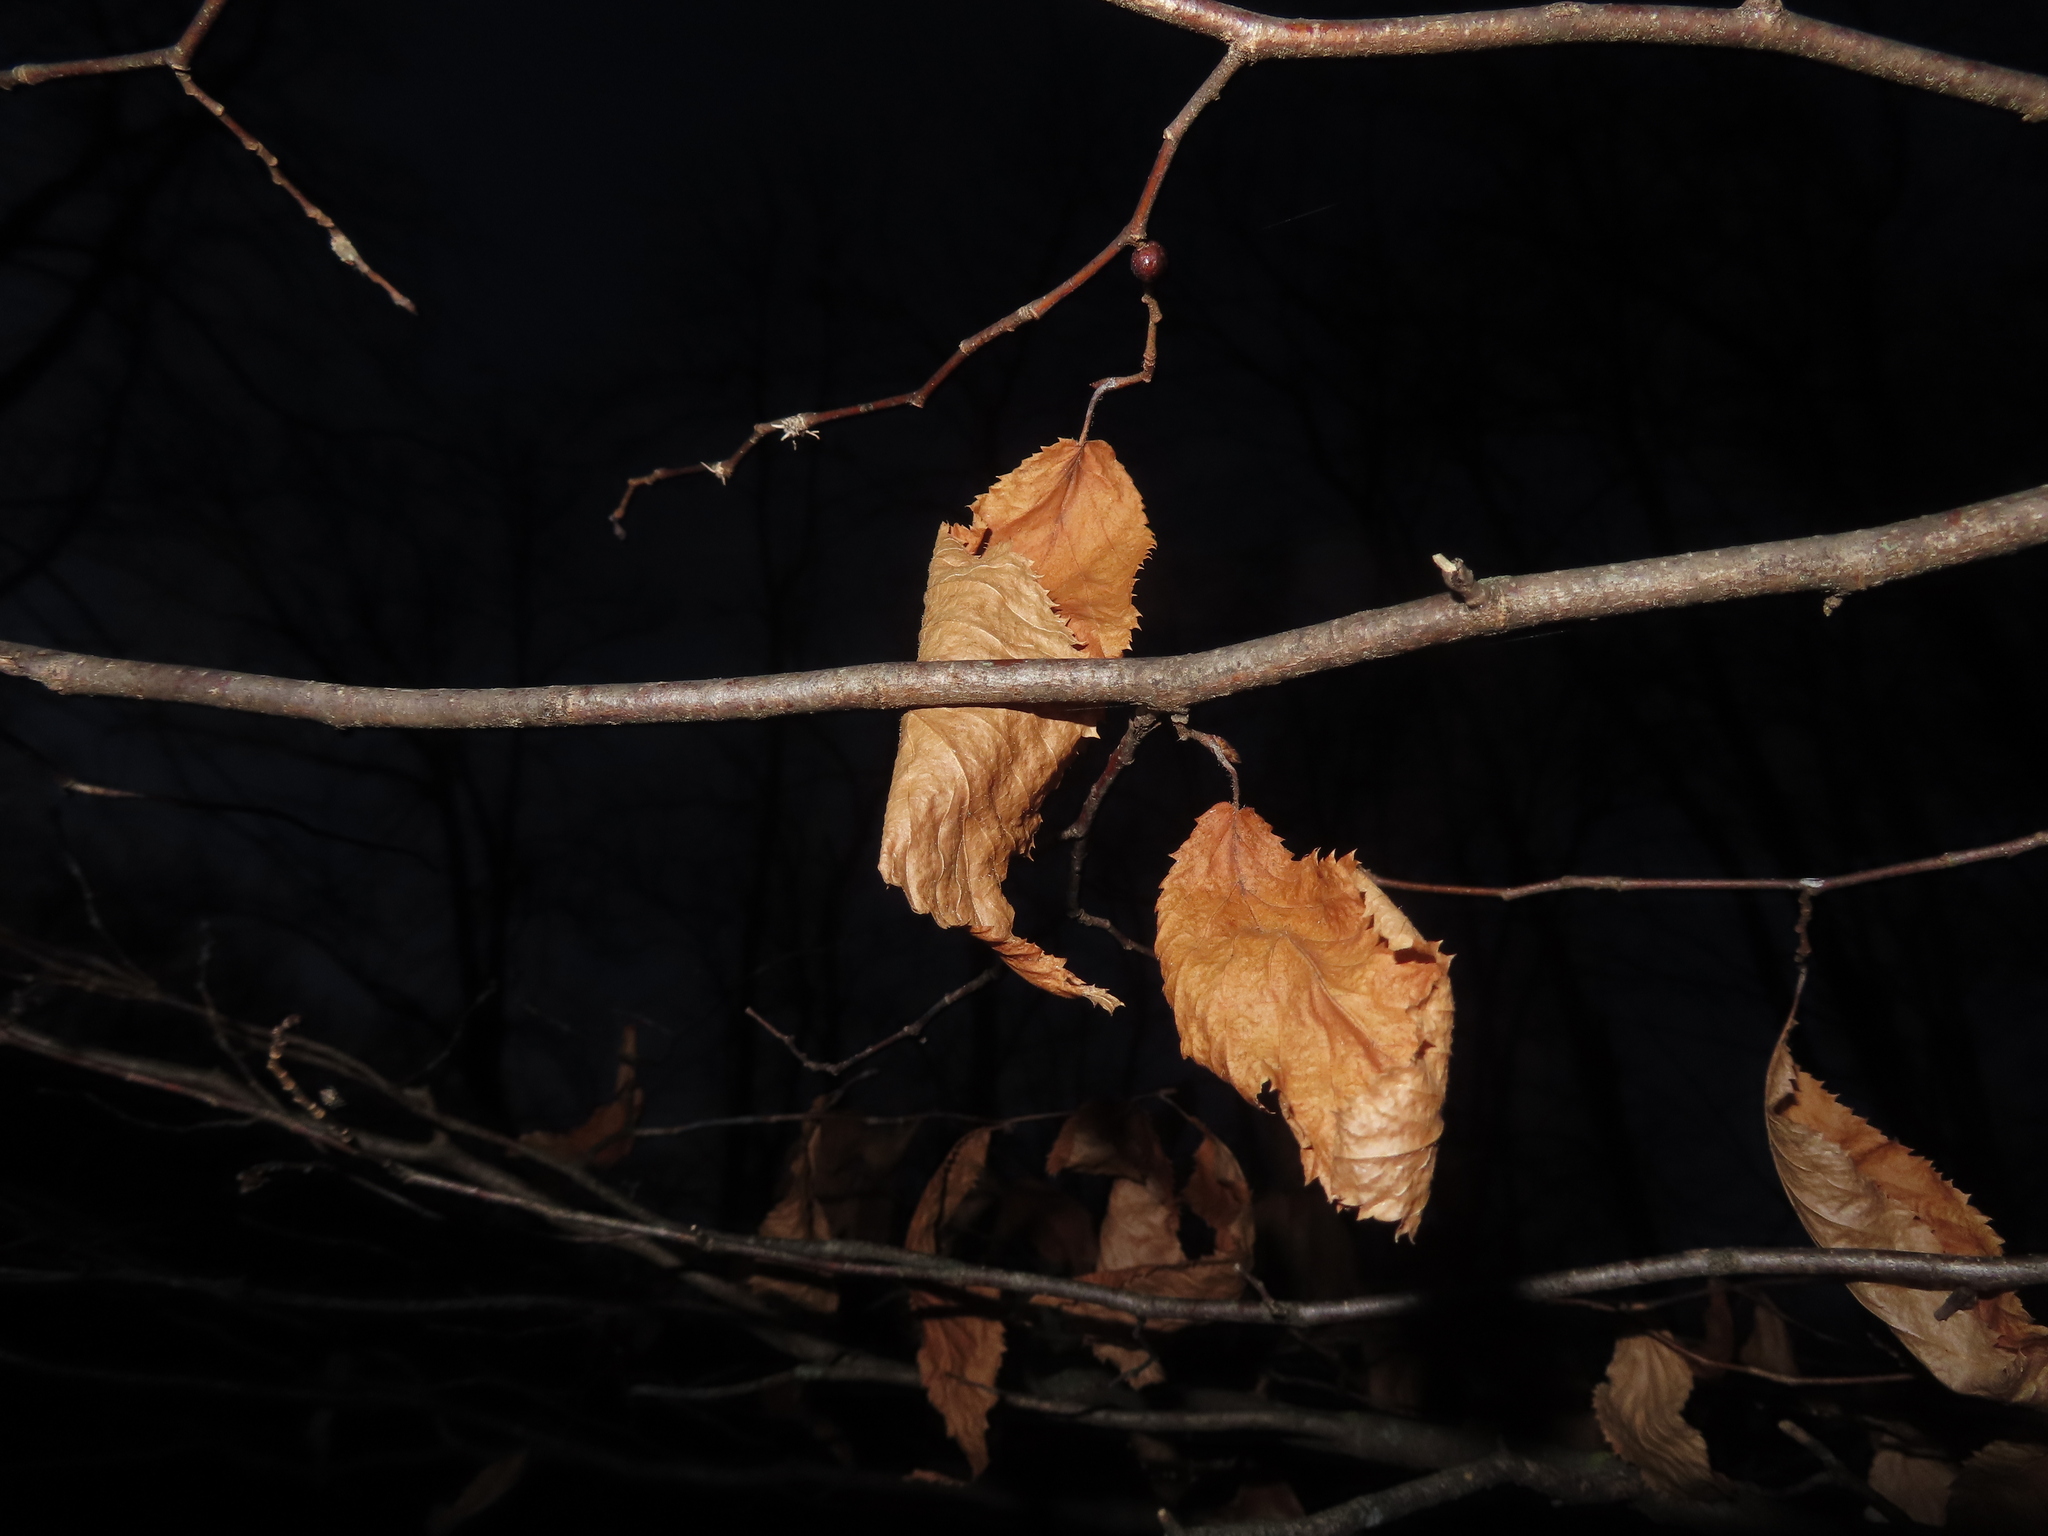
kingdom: Plantae
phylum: Tracheophyta
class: Magnoliopsida
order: Fagales
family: Betulaceae
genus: Ostrya
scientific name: Ostrya virginiana
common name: Ironwood
